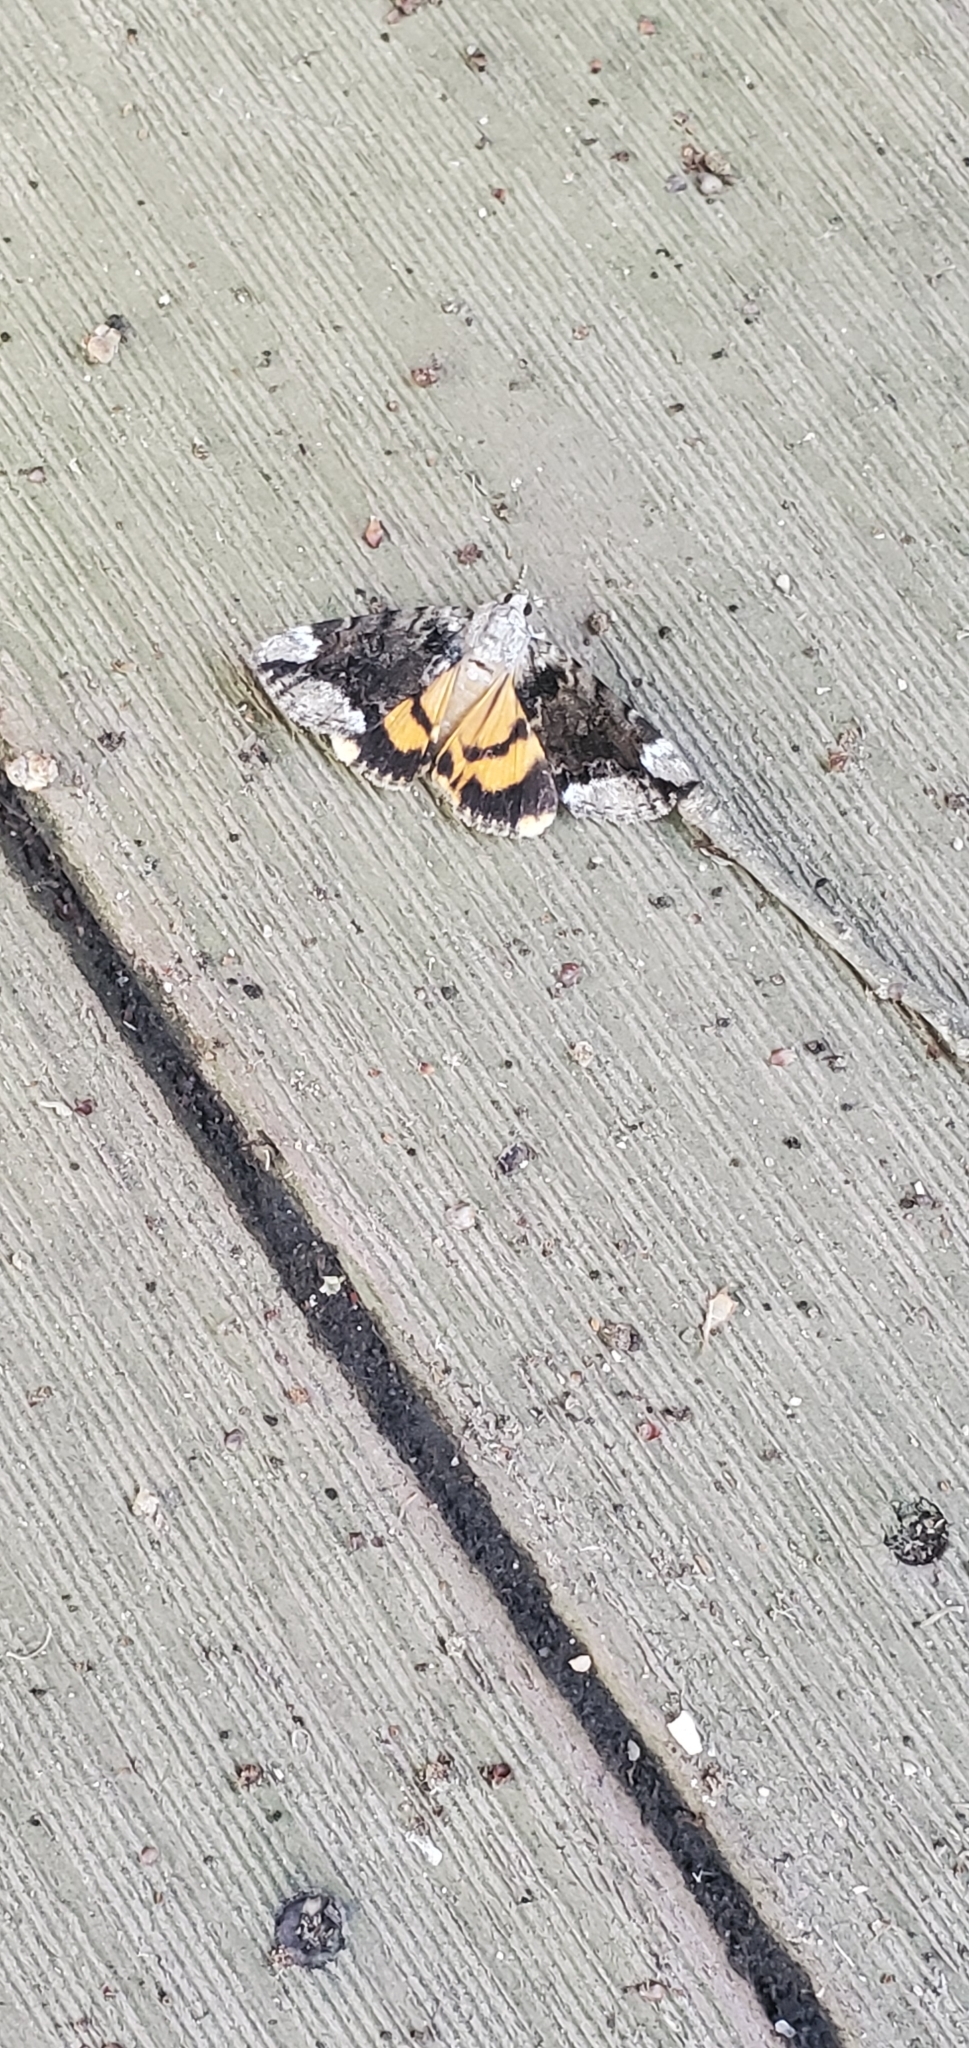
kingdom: Animalia
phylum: Arthropoda
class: Insecta
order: Lepidoptera
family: Erebidae
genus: Catocala
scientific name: Catocala micronympha
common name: Little nymph underwing
